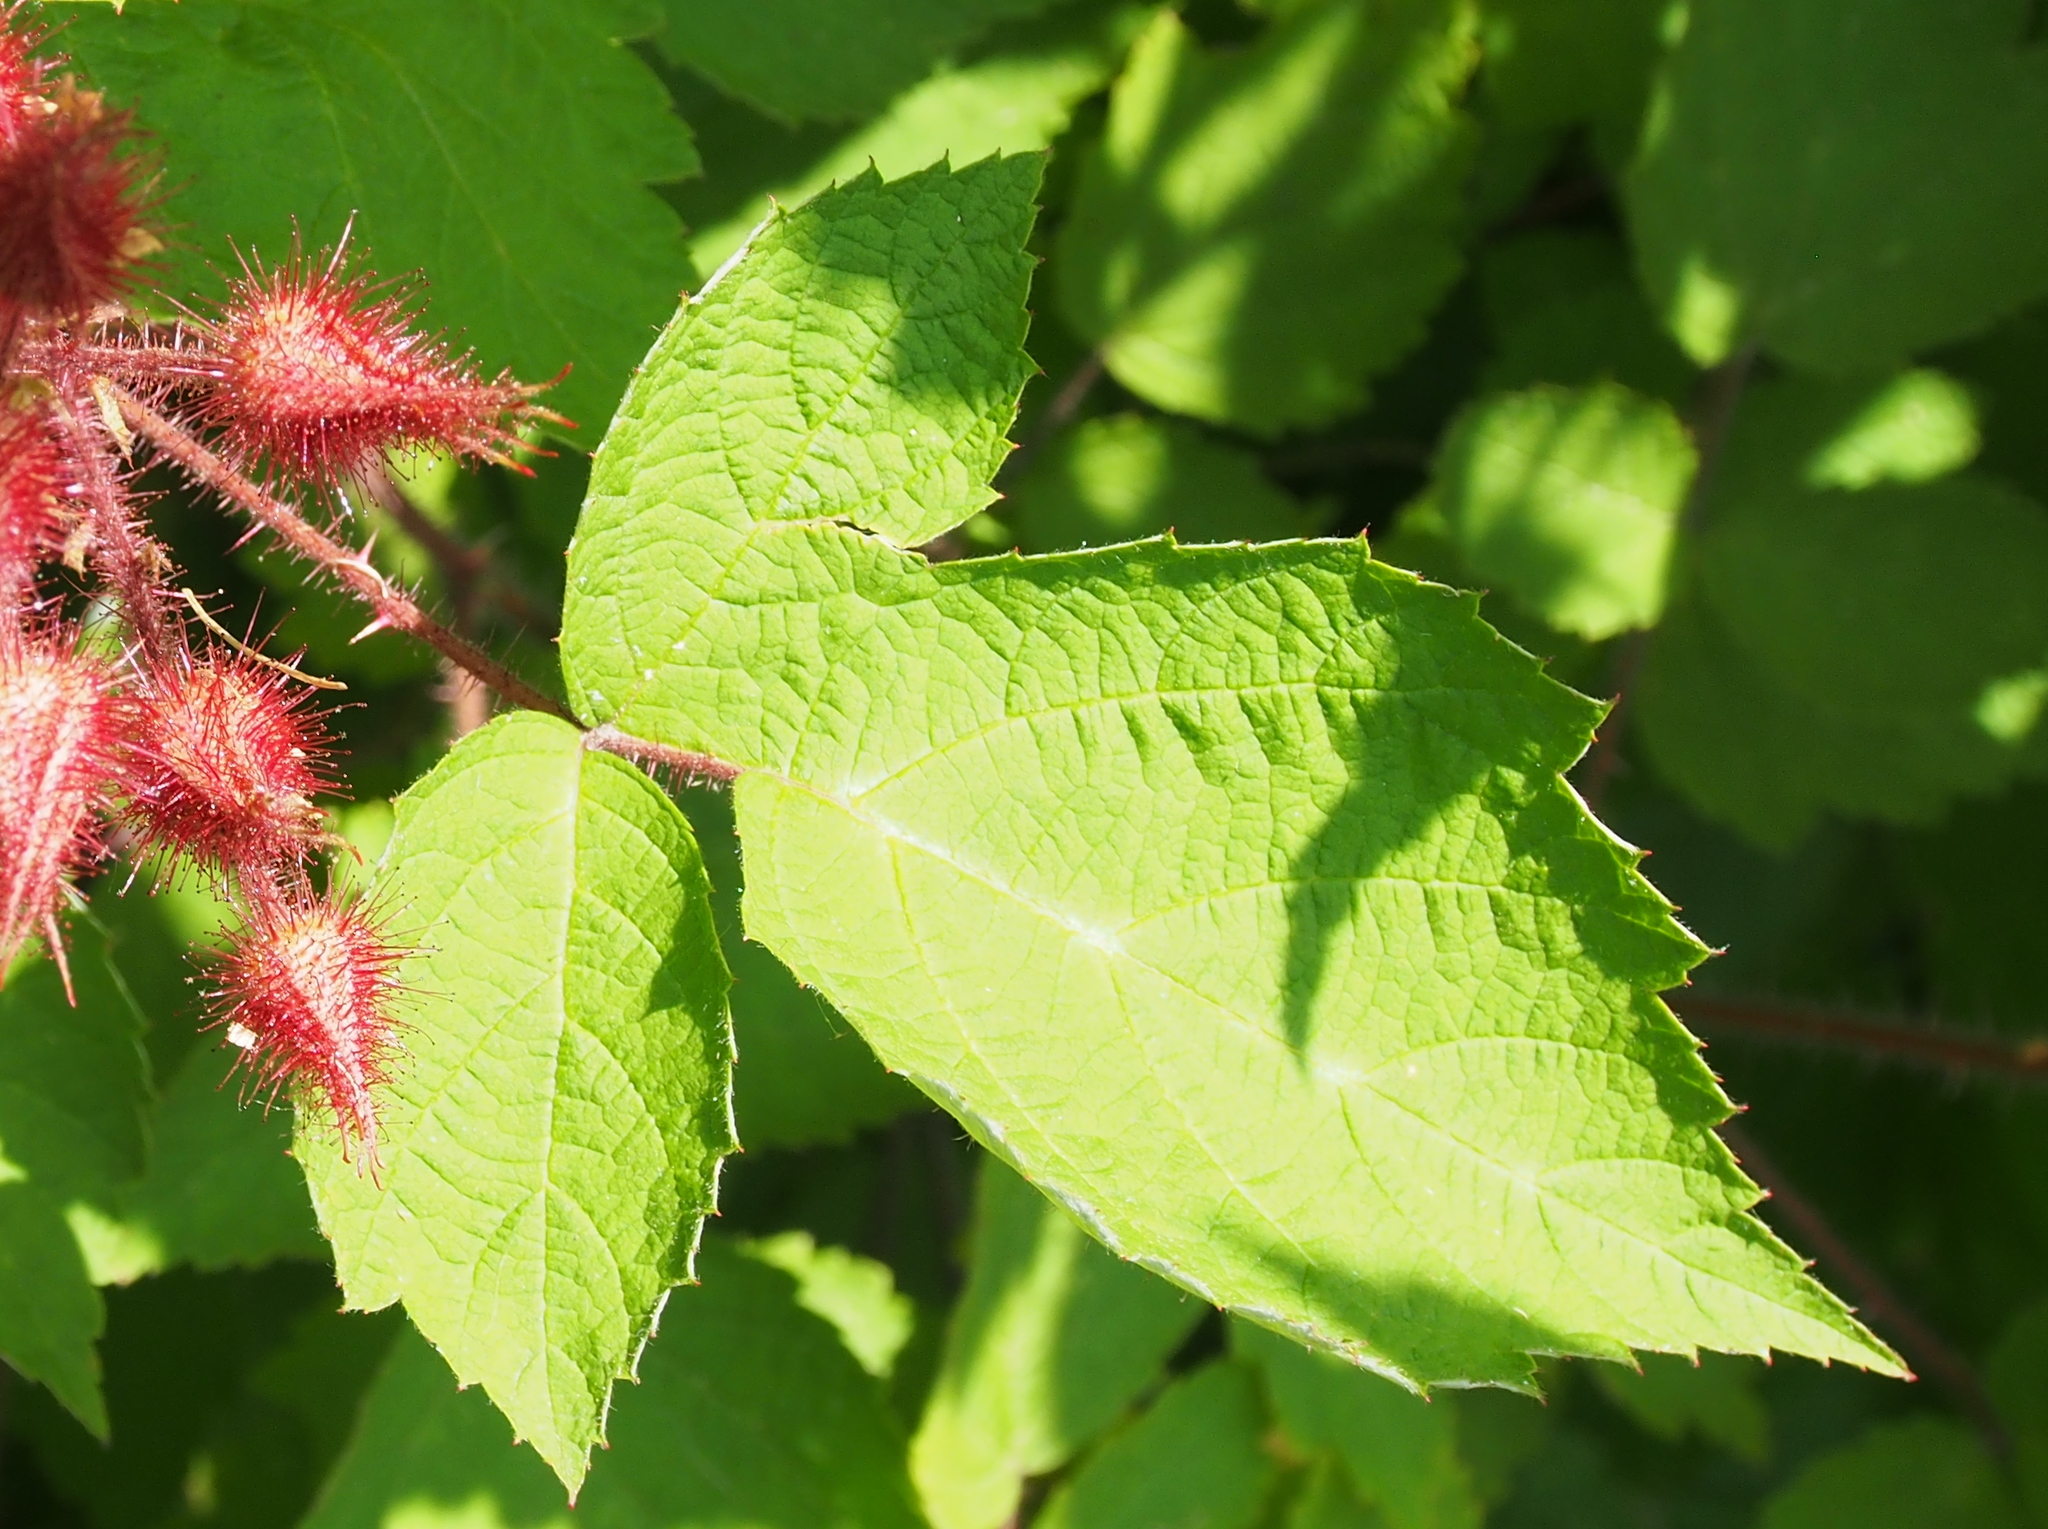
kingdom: Plantae
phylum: Tracheophyta
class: Magnoliopsida
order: Rosales
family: Rosaceae
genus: Rubus
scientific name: Rubus phoenicolasius
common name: Japanese wineberry
